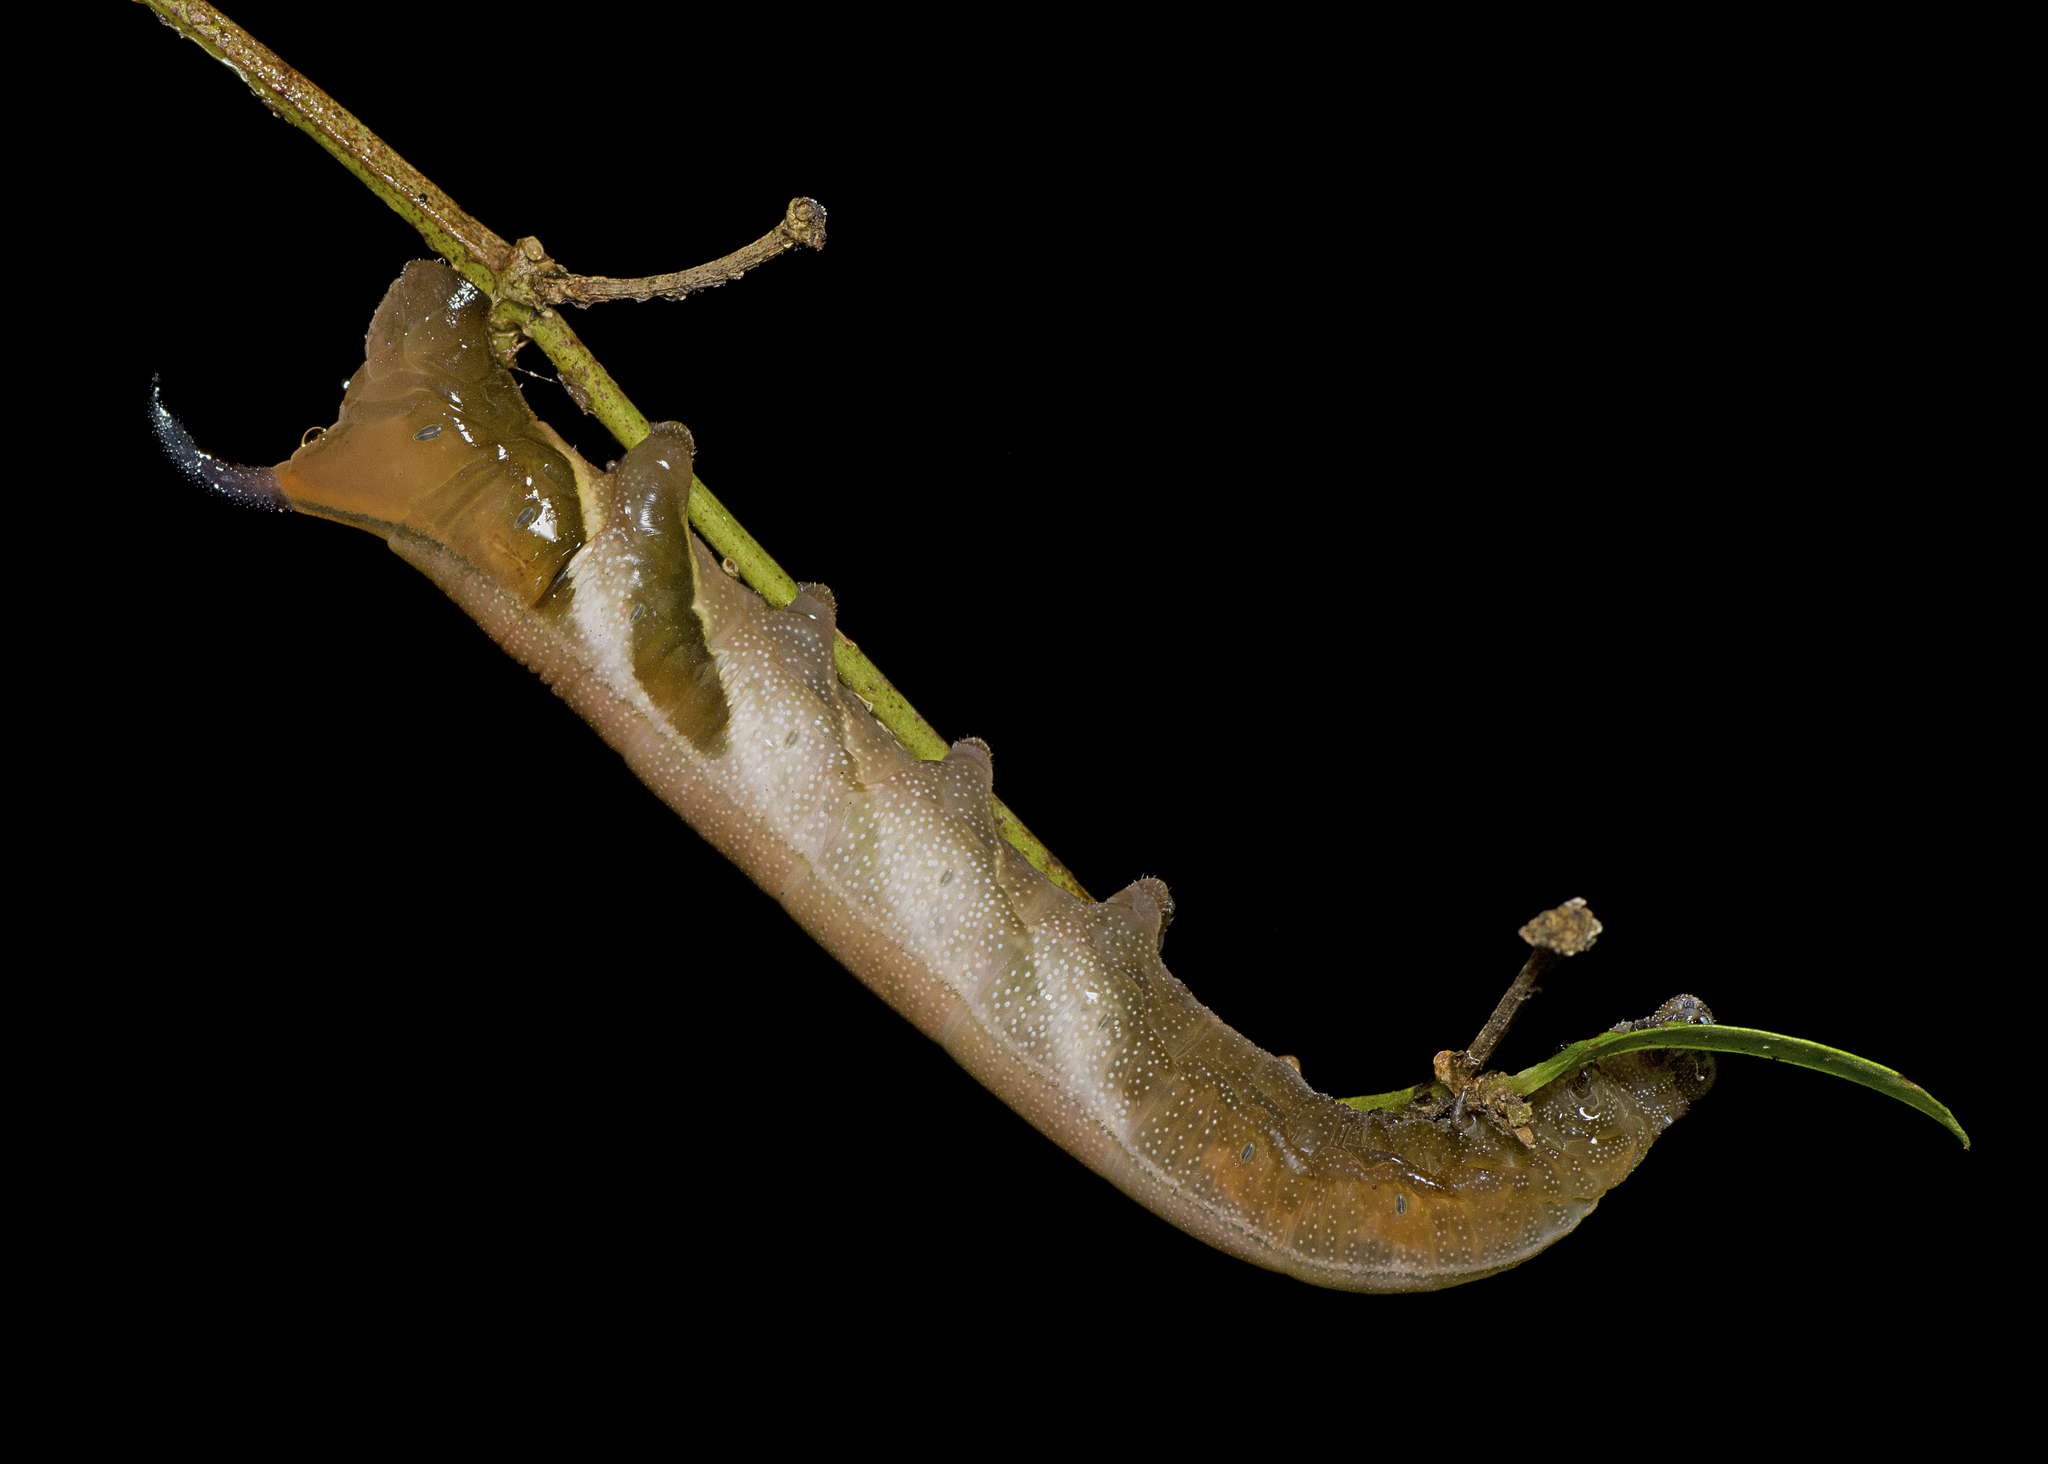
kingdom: Animalia
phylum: Arthropoda
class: Insecta
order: Lepidoptera
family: Sphingidae
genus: Cizara
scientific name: Cizara ardeniae
